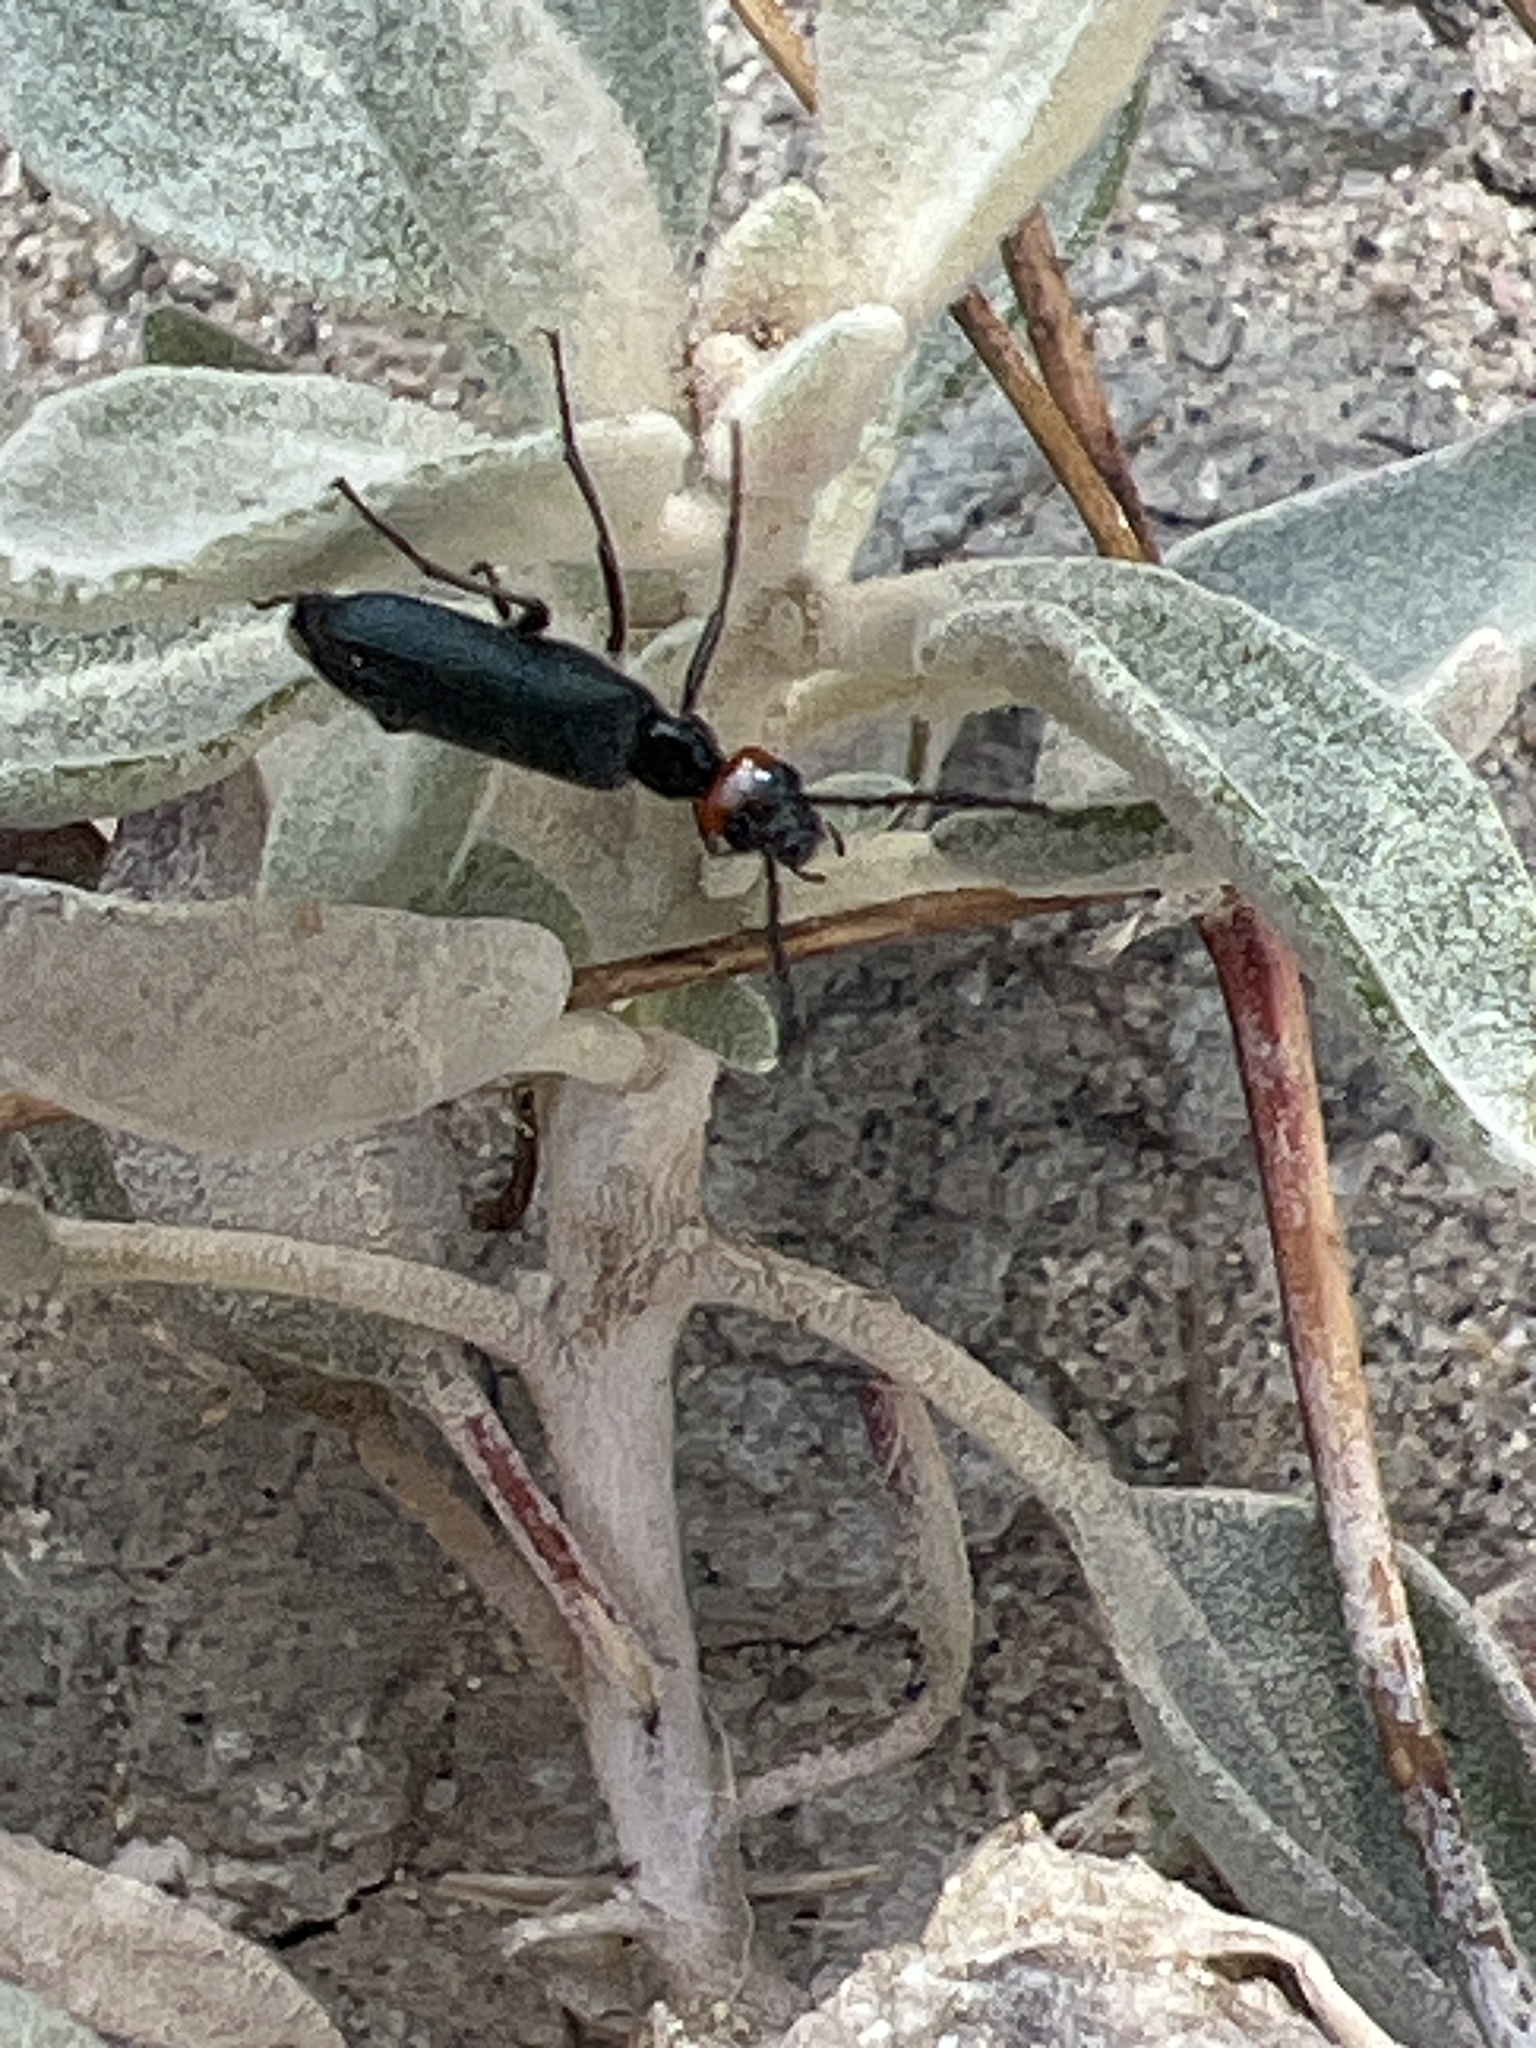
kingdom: Animalia
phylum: Arthropoda
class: Insecta
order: Coleoptera
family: Meloidae
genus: Lytta
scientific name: Lytta auriculata
